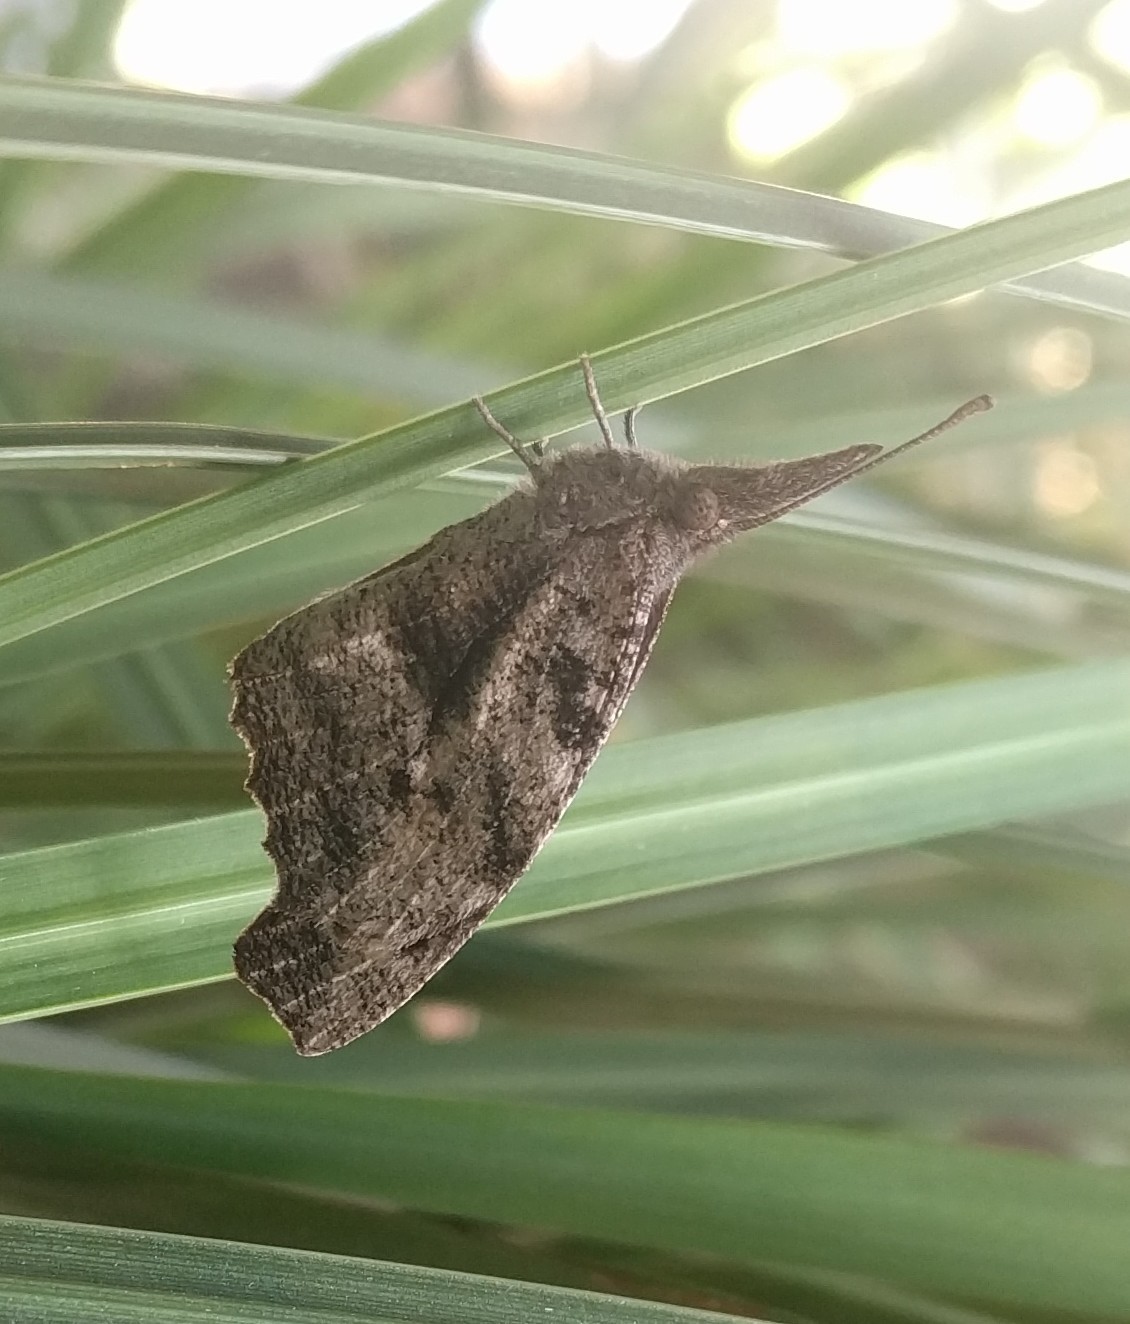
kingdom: Animalia
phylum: Arthropoda
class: Insecta
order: Lepidoptera
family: Nymphalidae
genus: Libytheana
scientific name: Libytheana carinenta
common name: American snout
